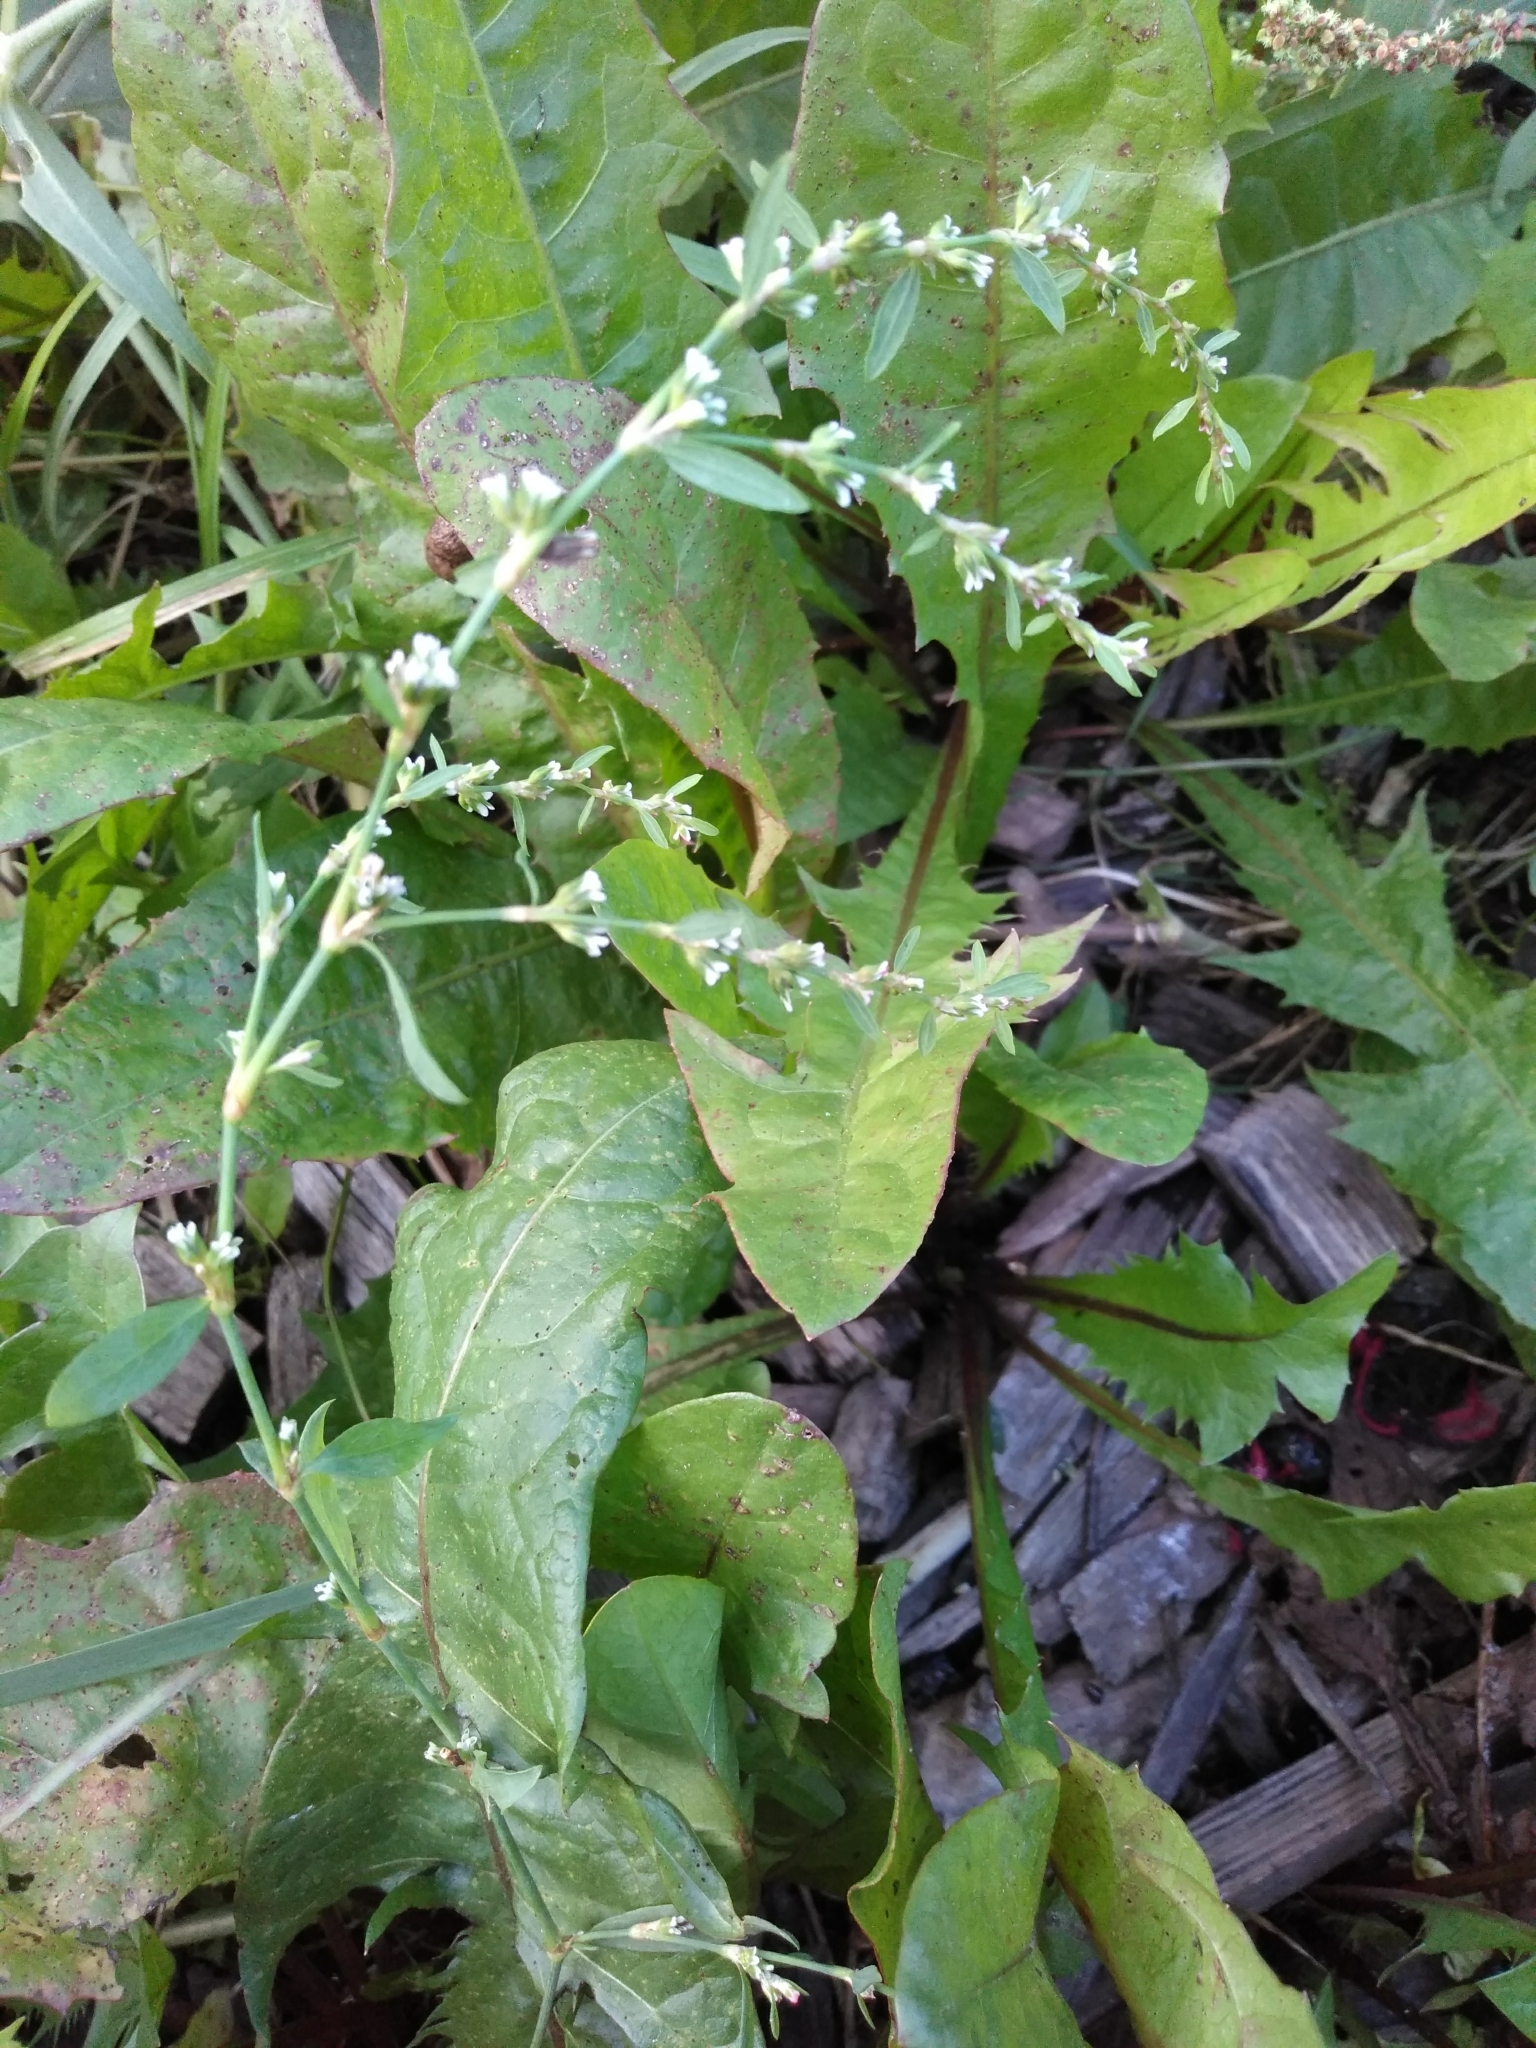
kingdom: Plantae
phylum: Tracheophyta
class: Magnoliopsida
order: Caryophyllales
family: Polygonaceae
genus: Polygonum
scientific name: Polygonum
